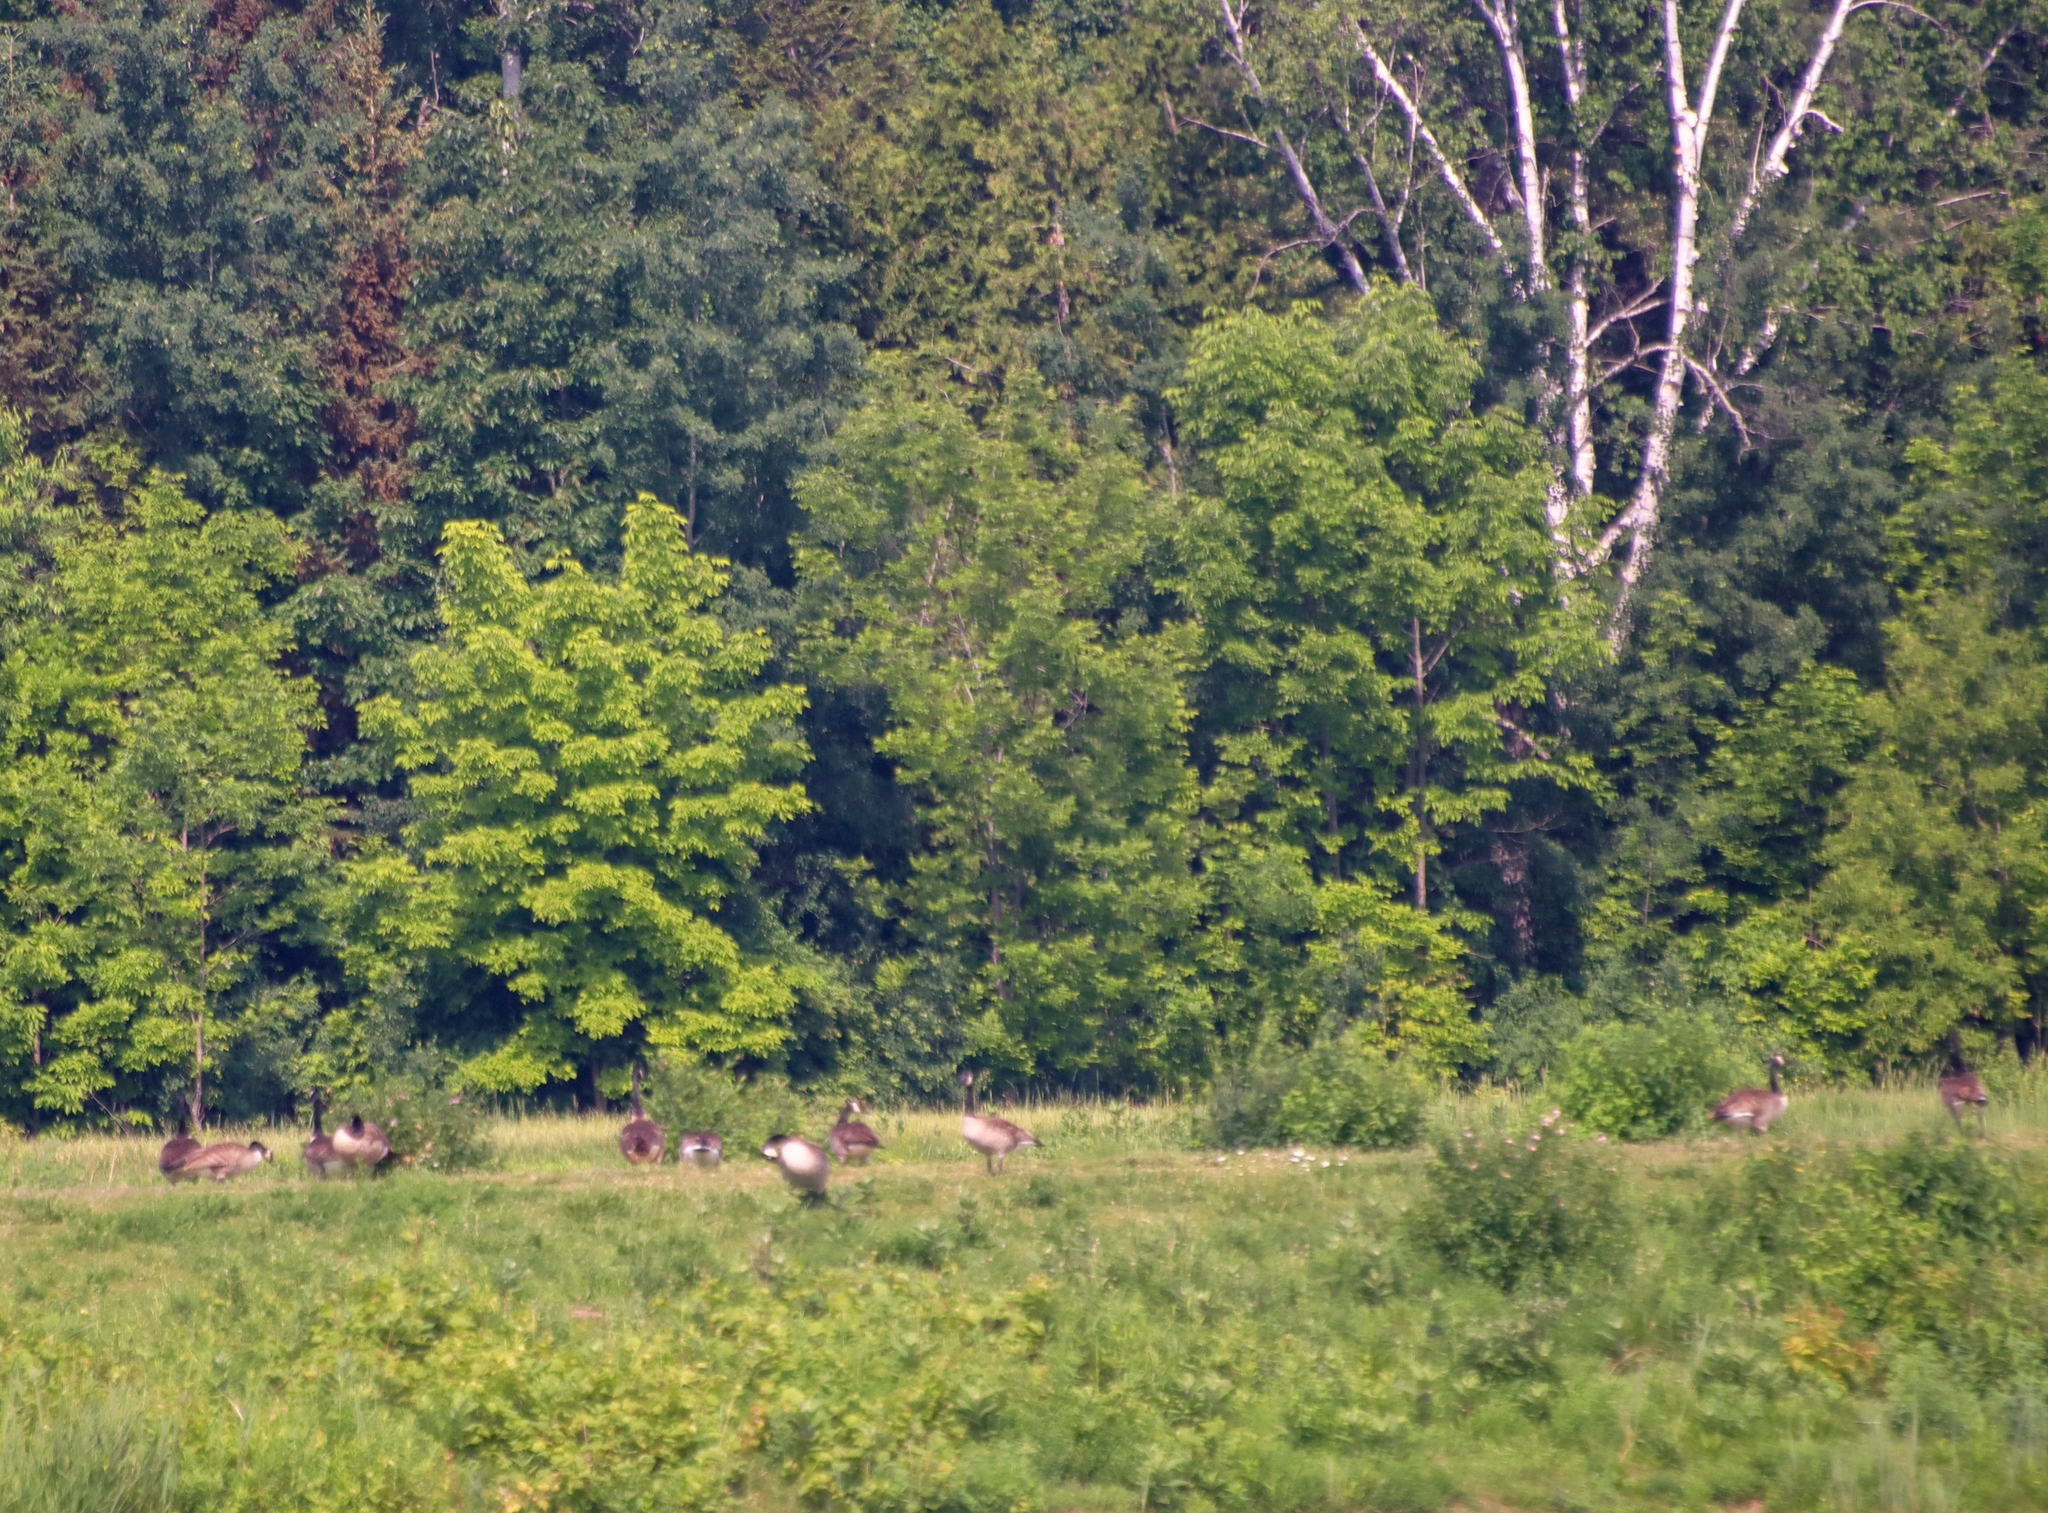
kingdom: Animalia
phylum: Chordata
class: Aves
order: Anseriformes
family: Anatidae
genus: Branta
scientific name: Branta canadensis
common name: Canada goose
